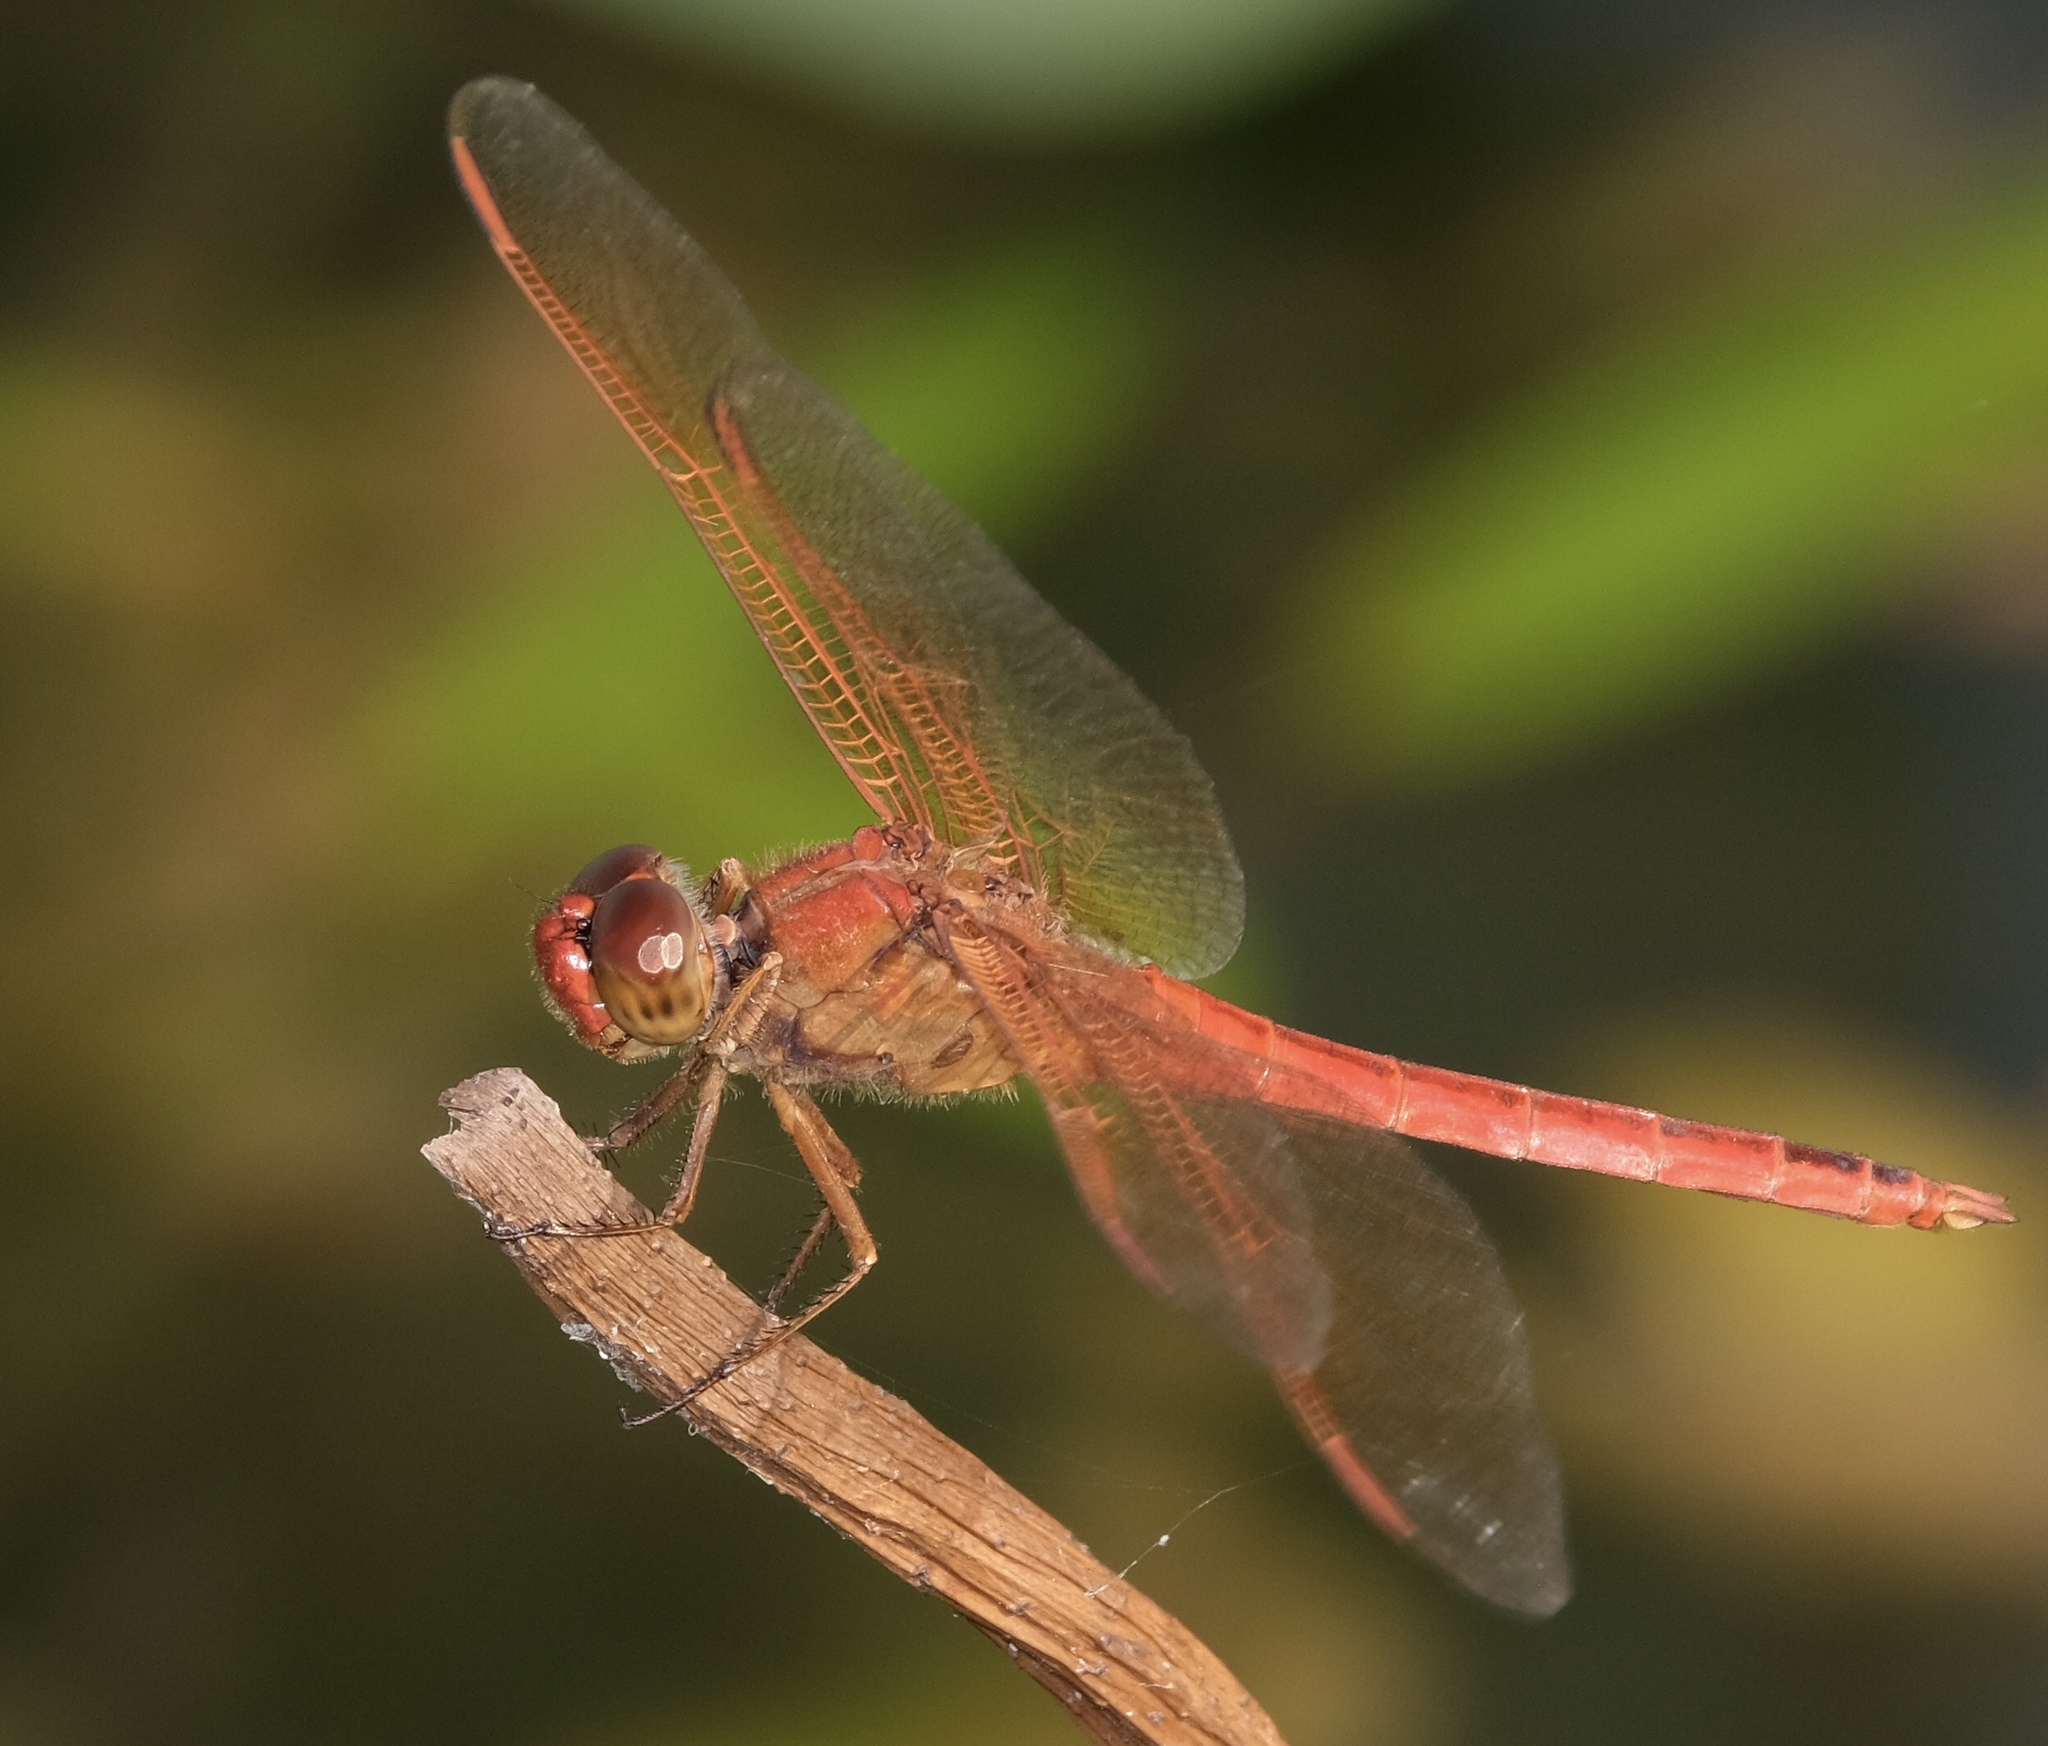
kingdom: Animalia
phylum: Arthropoda
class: Insecta
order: Odonata
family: Libellulidae
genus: Libellula
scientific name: Libellula needhami
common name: Needham's skimmer
